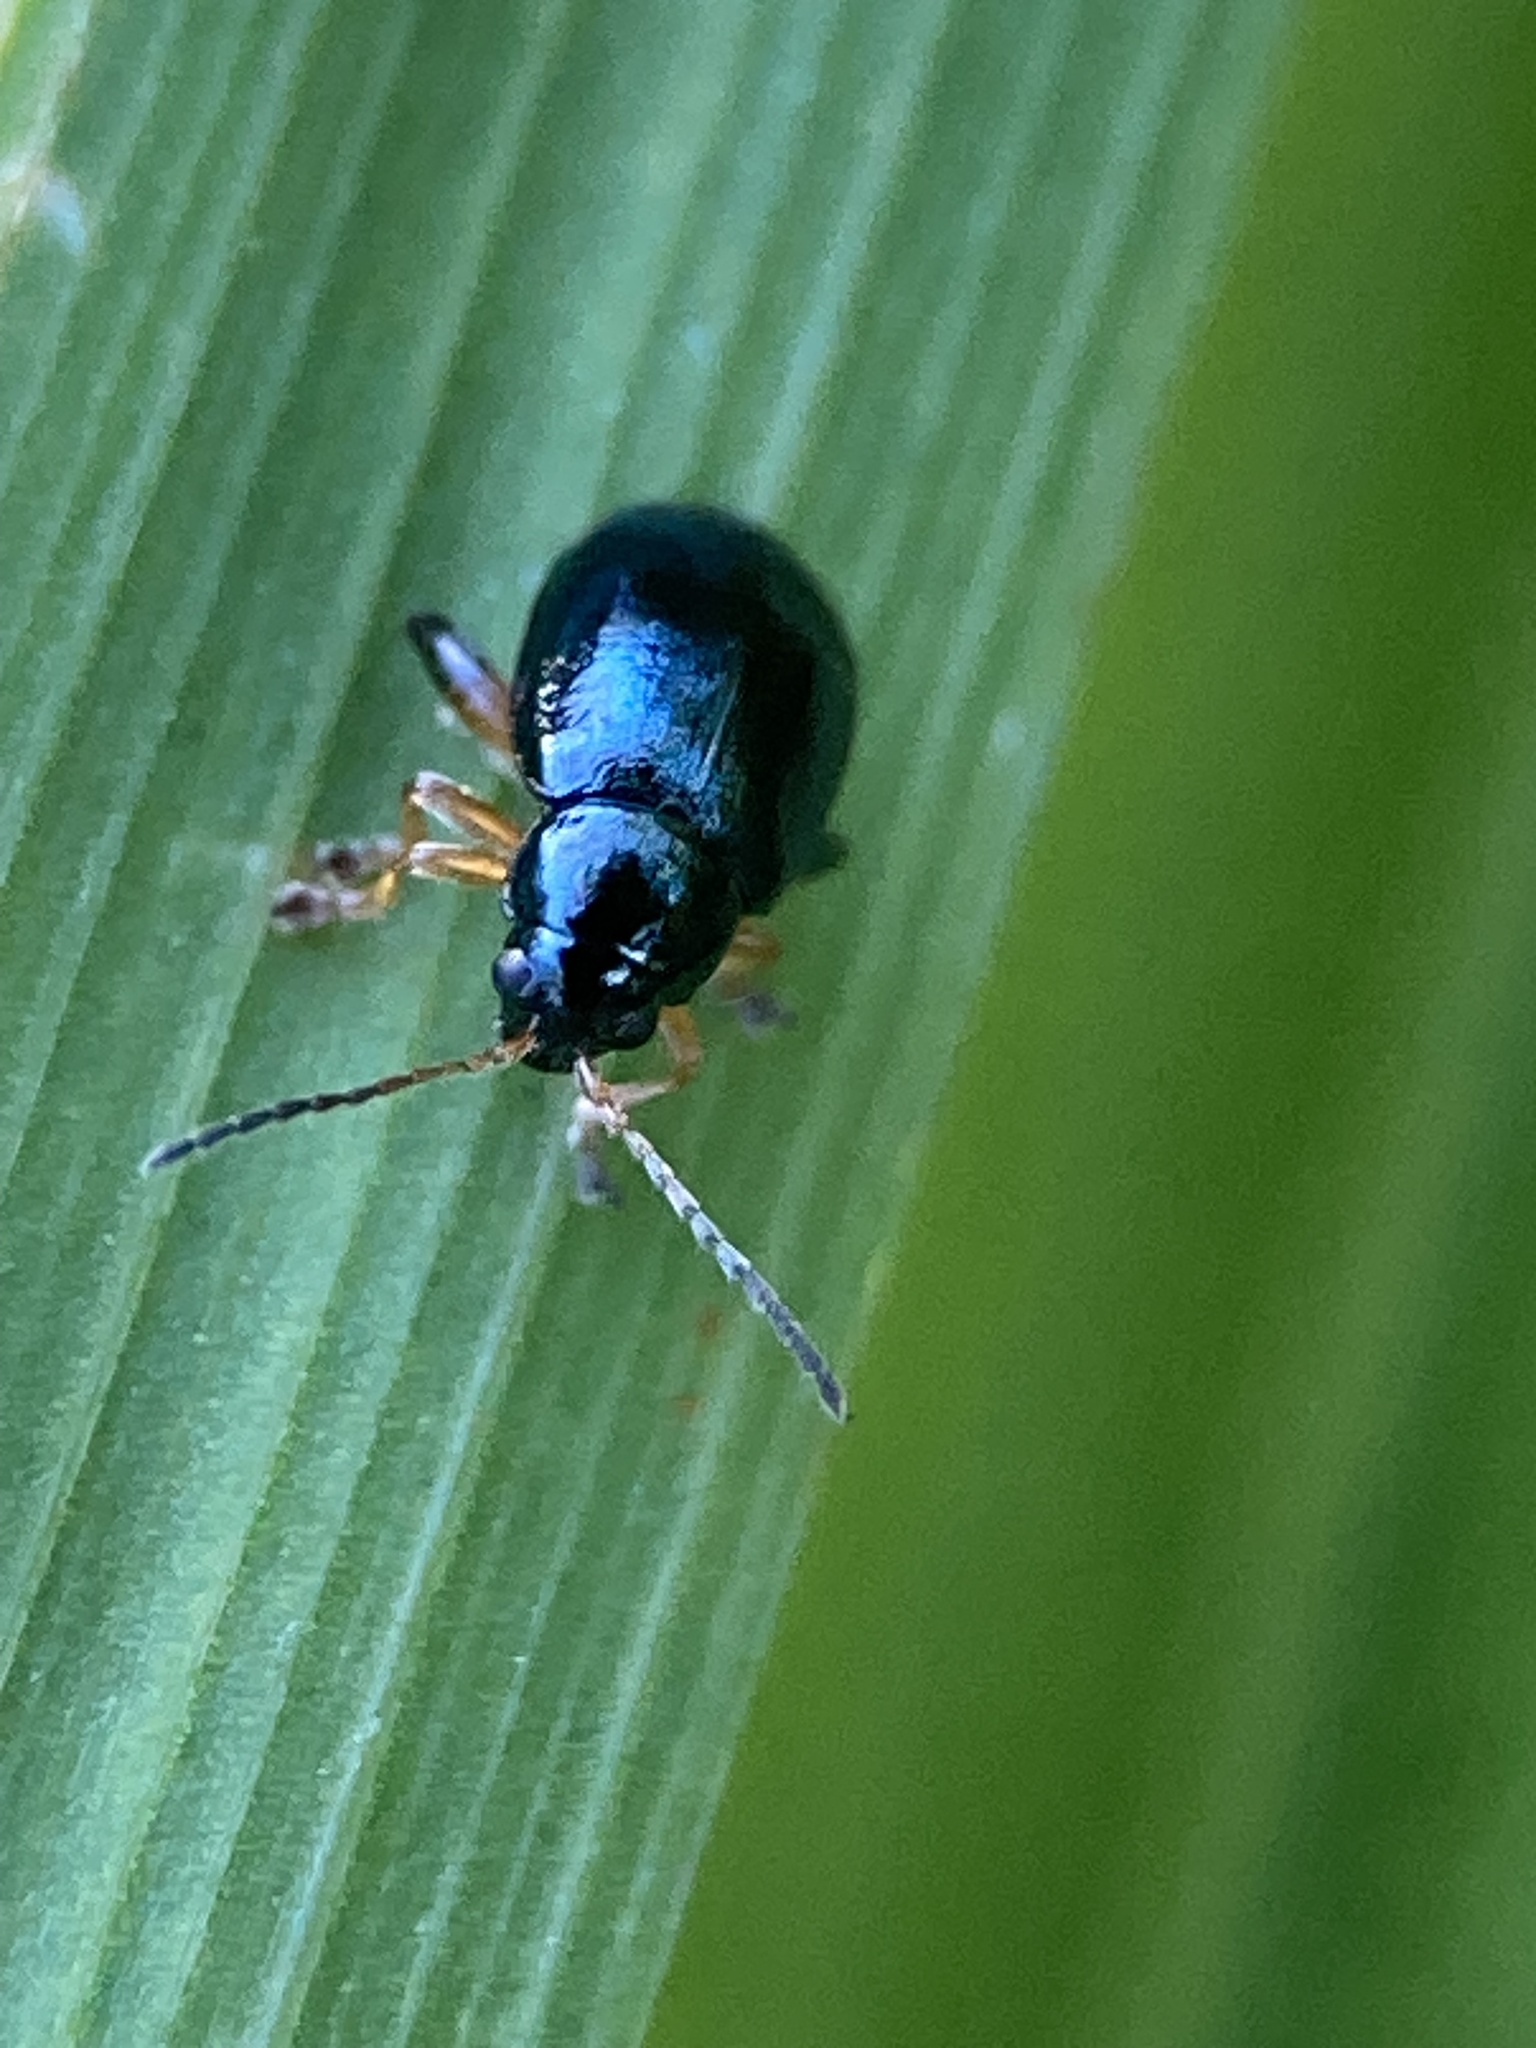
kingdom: Animalia
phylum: Arthropoda
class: Insecta
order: Coleoptera
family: Chrysomelidae
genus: Aphthona
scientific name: Aphthona nonstriata
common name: Iris flea beetle
